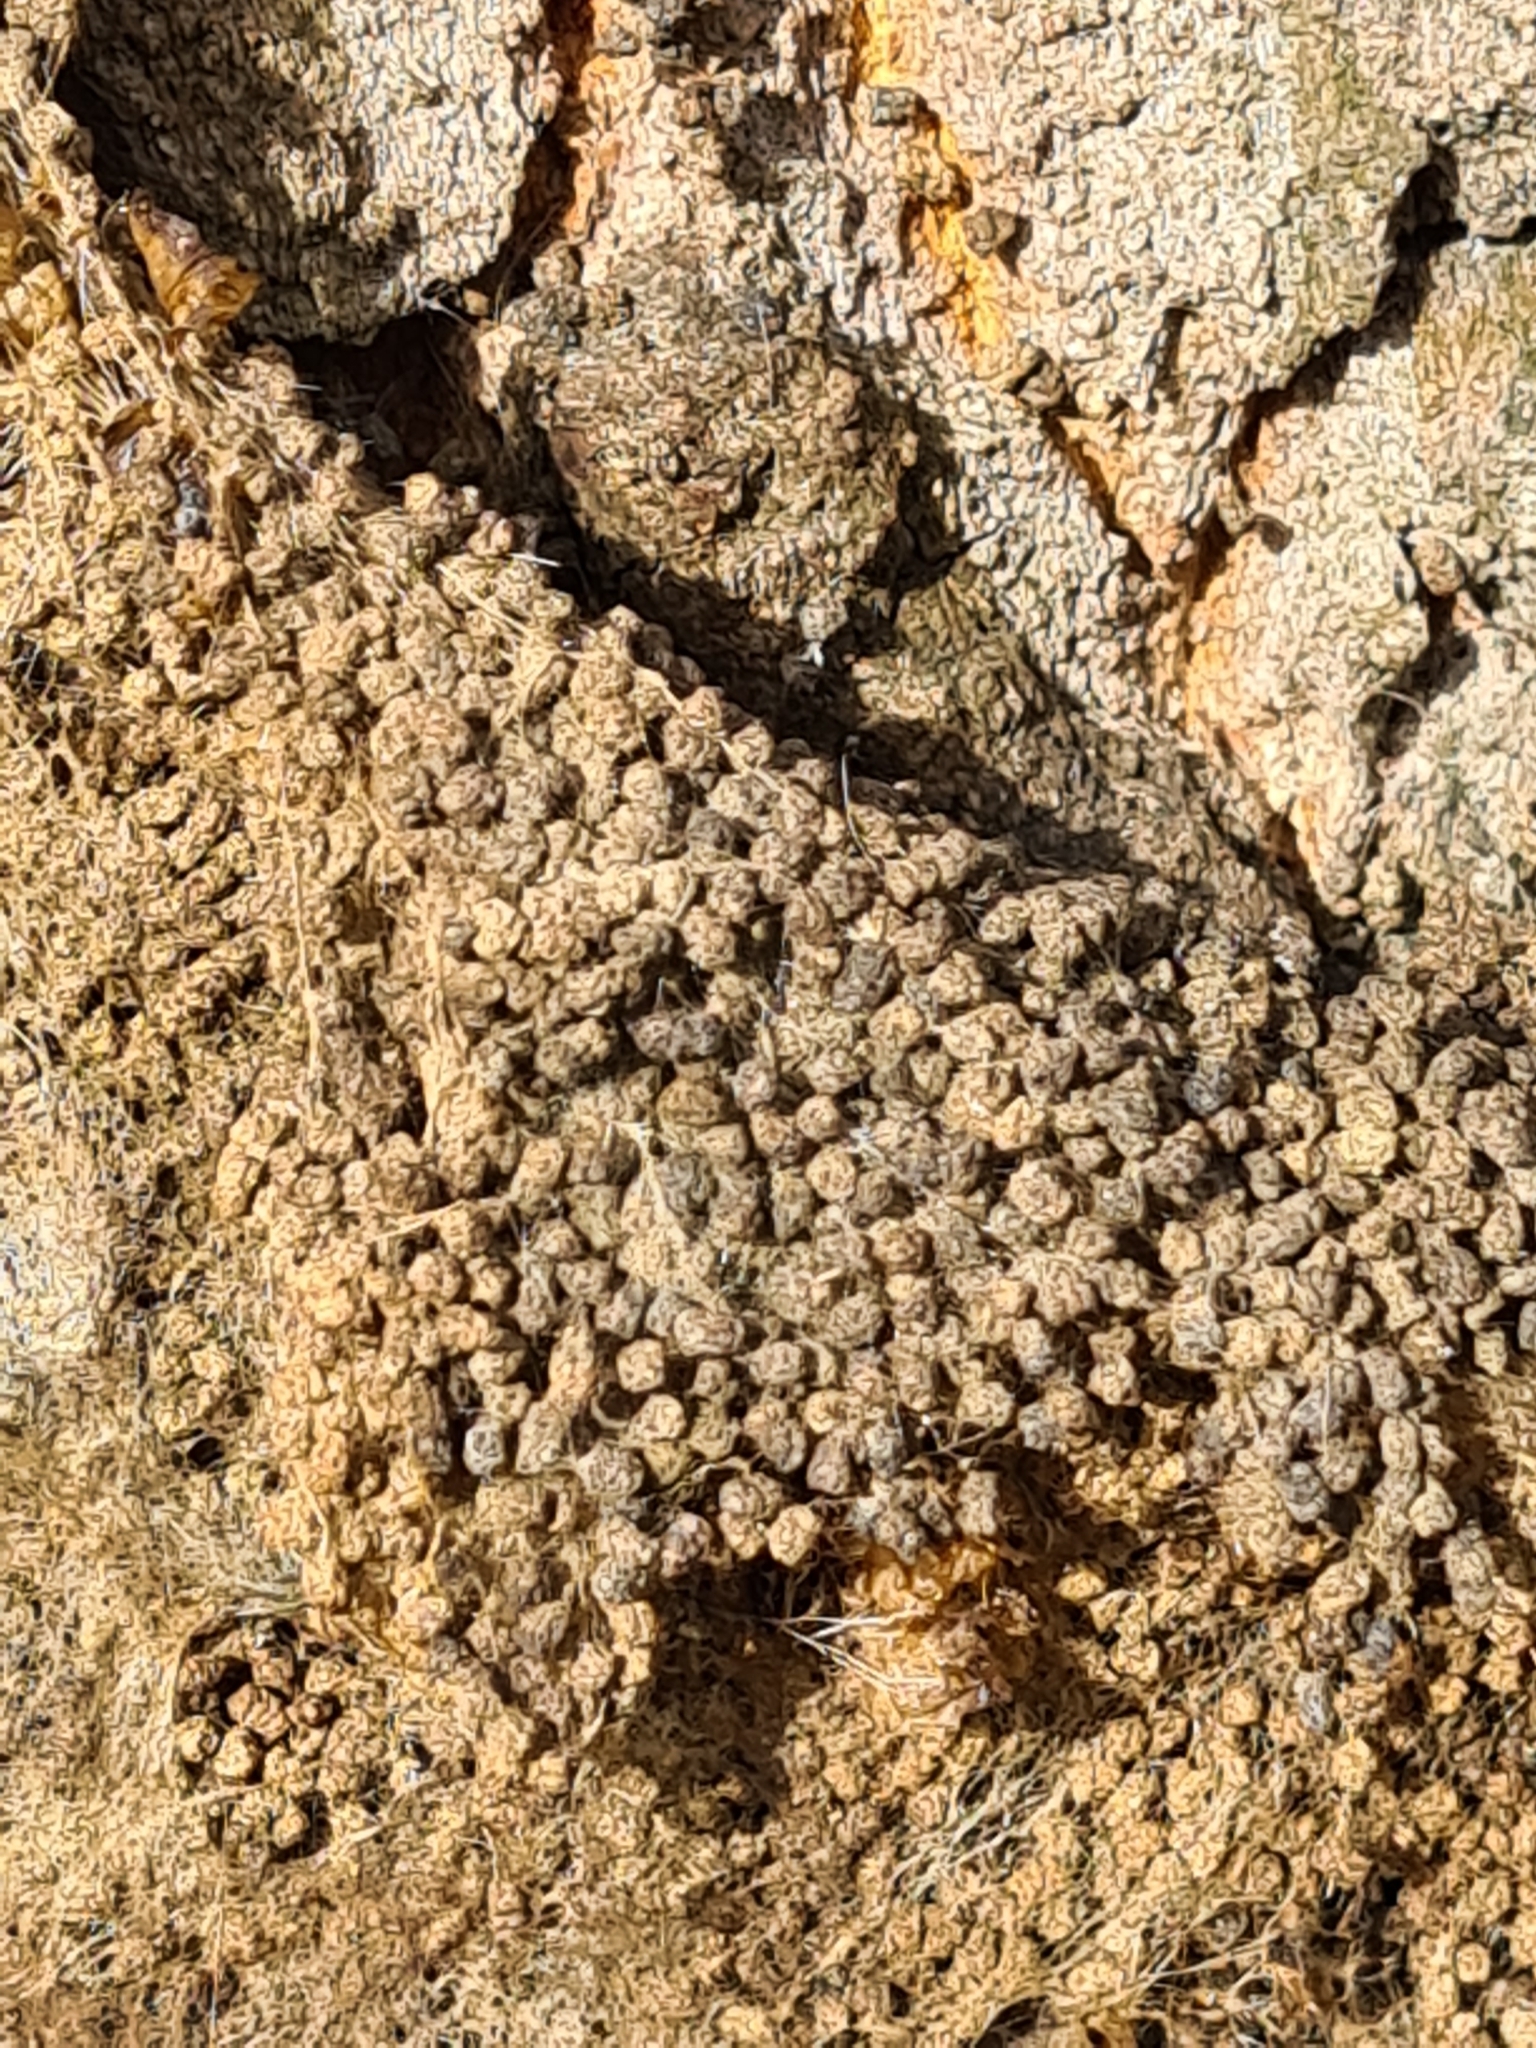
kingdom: Animalia
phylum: Arthropoda
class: Insecta
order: Lepidoptera
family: Notodontidae
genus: Thaumetopoea
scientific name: Thaumetopoea processionea
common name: Oak processionea
